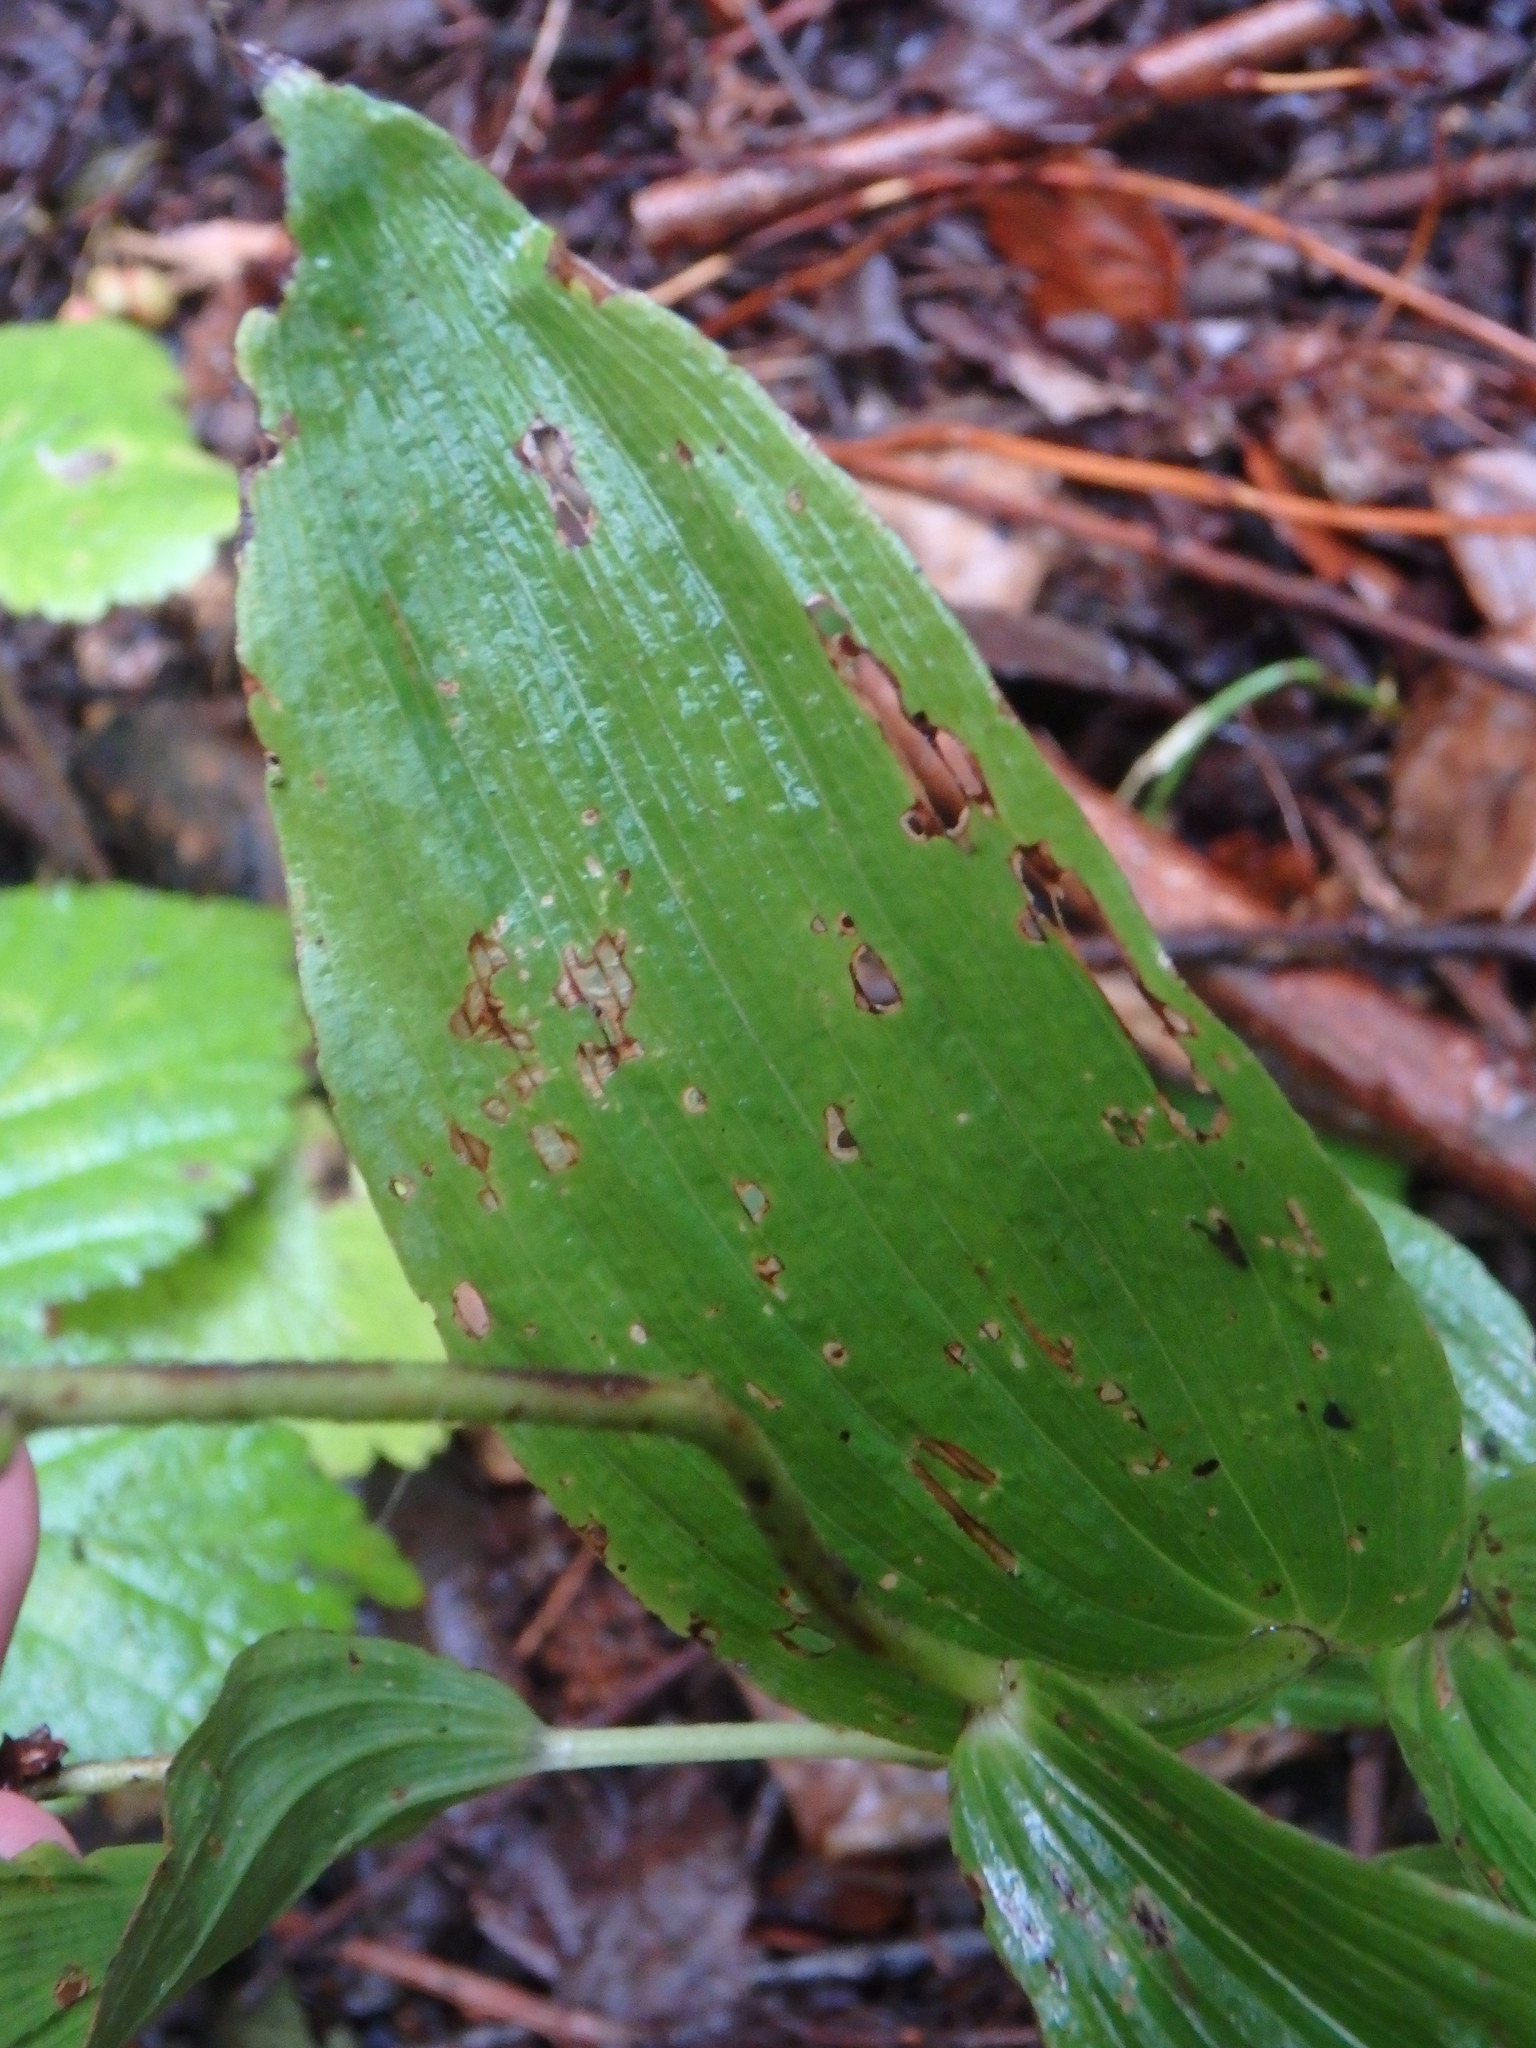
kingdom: Plantae
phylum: Tracheophyta
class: Liliopsida
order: Asparagales
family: Orchidaceae
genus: Epipactis
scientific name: Epipactis helleborine
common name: Broad-leaved helleborine
